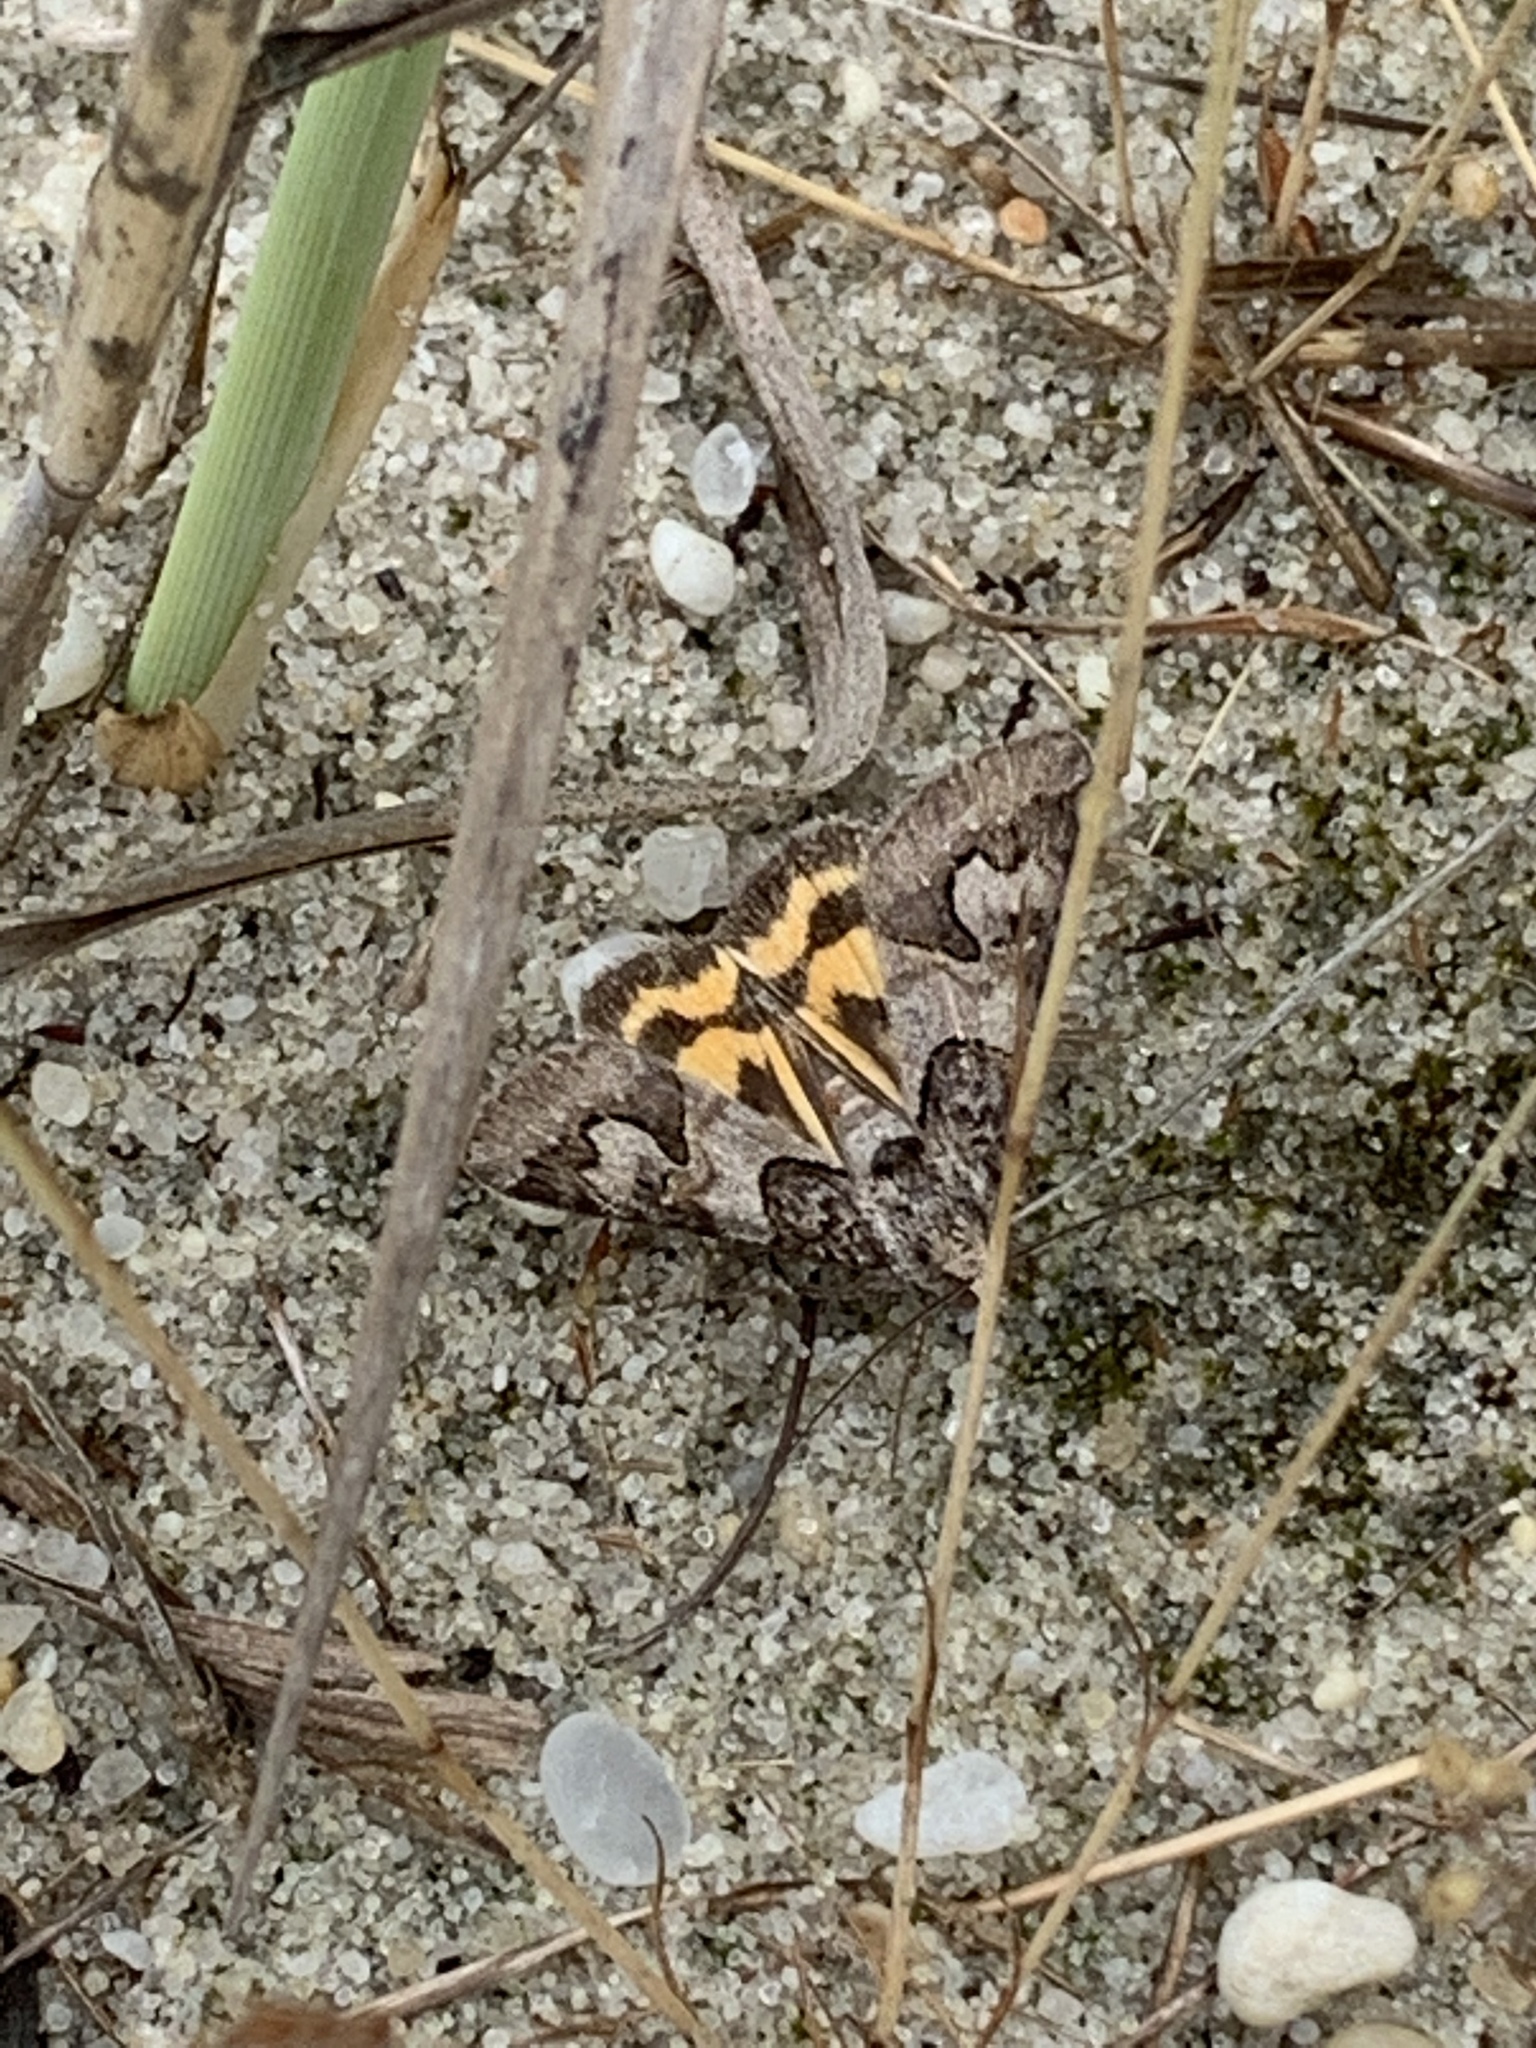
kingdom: Animalia
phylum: Arthropoda
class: Insecta
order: Lepidoptera
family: Erebidae
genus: Drasteria
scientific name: Drasteria graphica
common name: Coastal graphic
